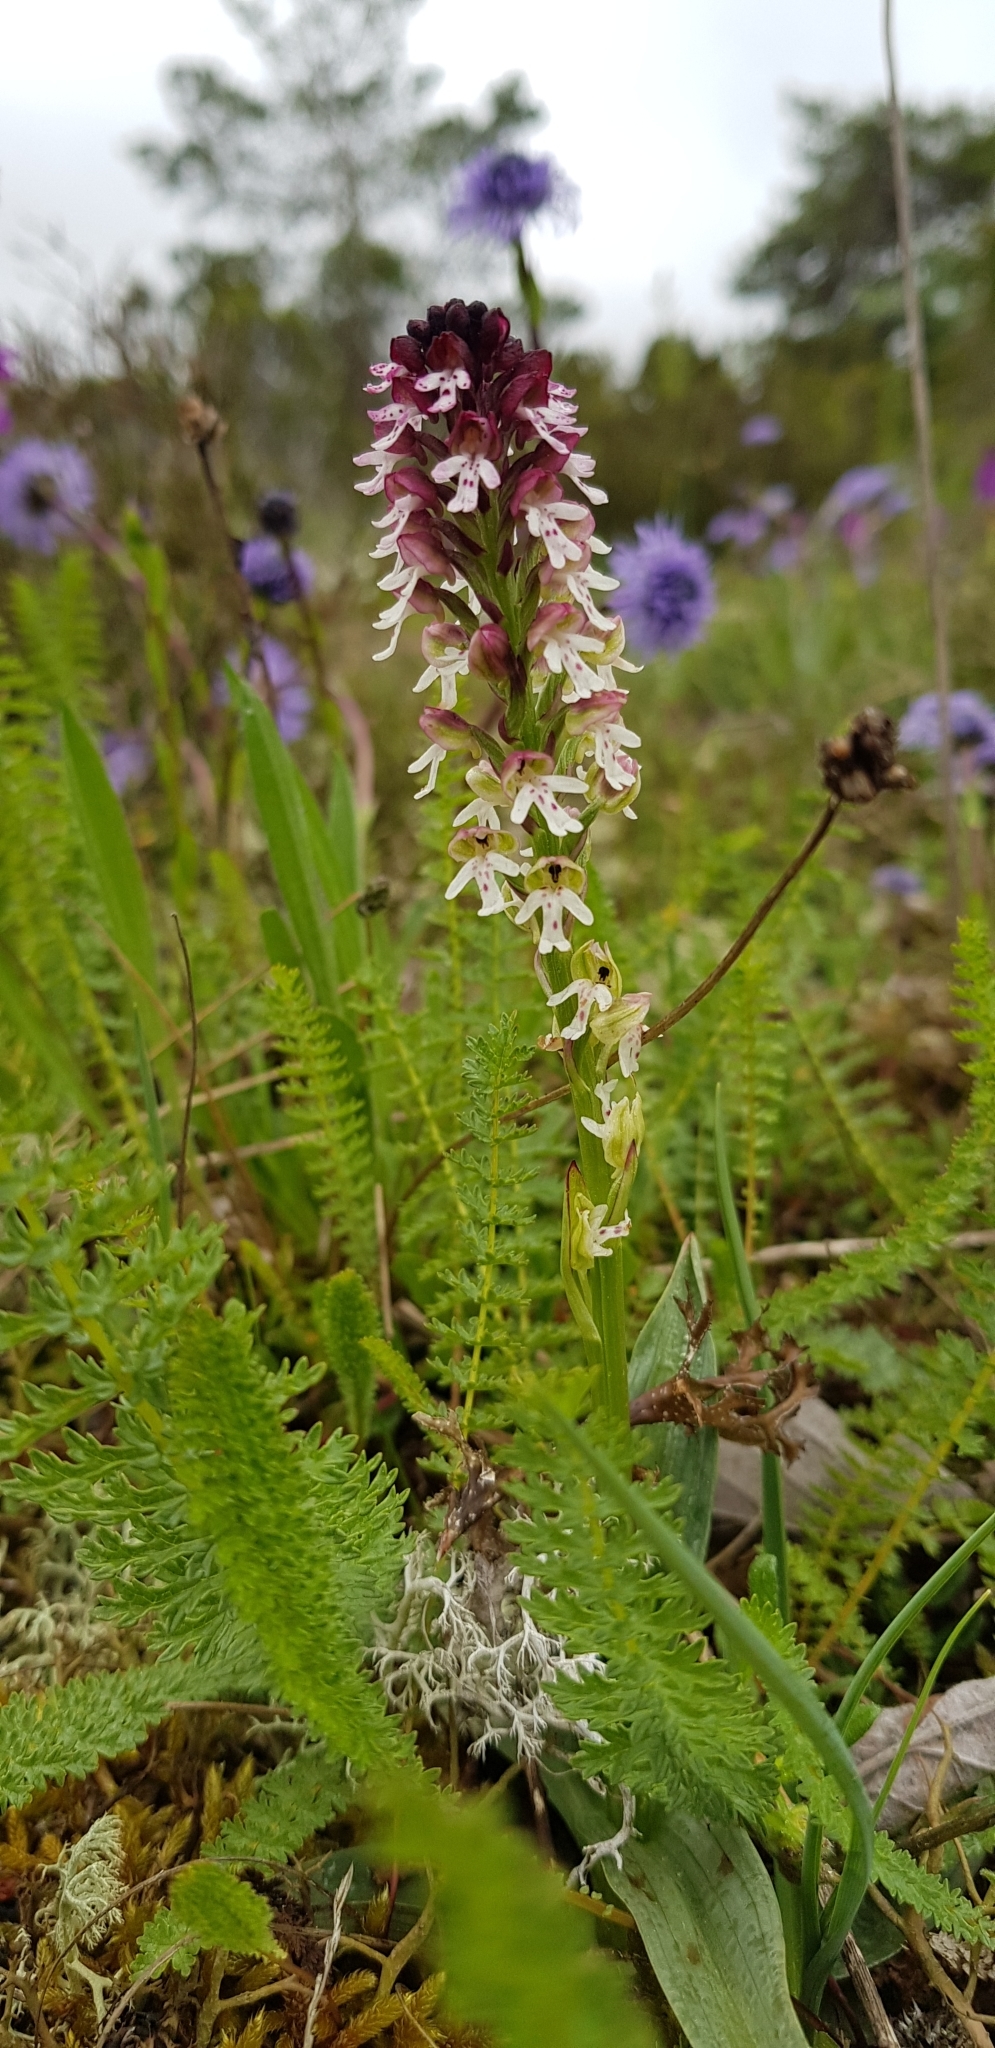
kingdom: Plantae
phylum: Tracheophyta
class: Liliopsida
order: Asparagales
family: Orchidaceae
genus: Neotinea
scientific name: Neotinea ustulata
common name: Burnt orchid
